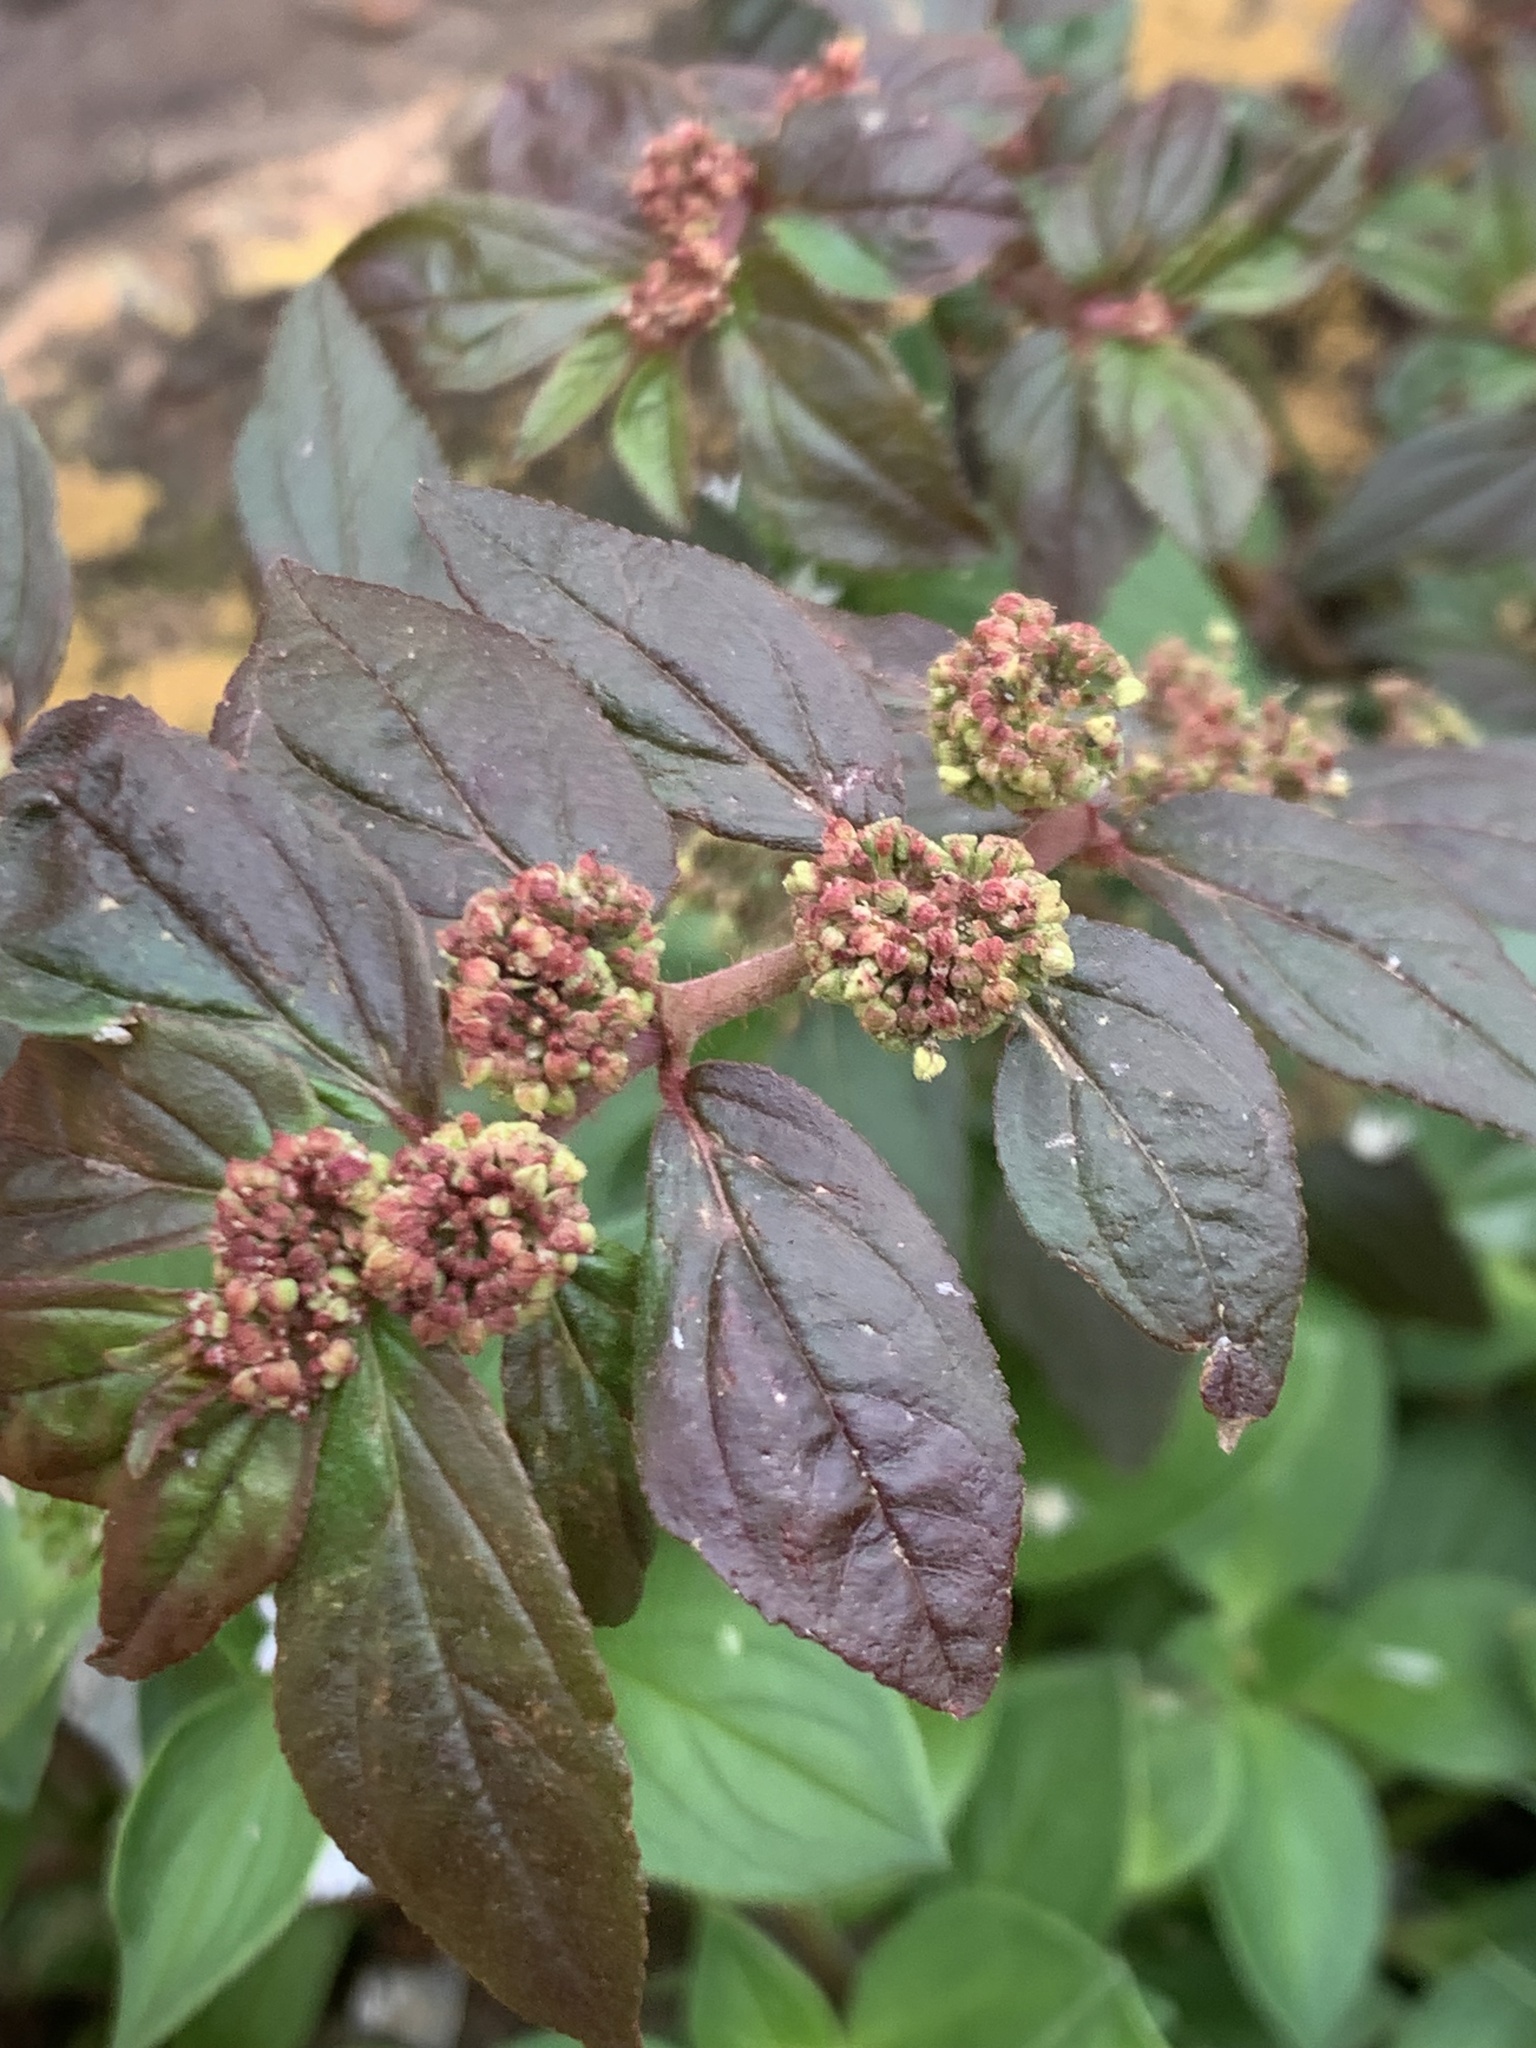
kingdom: Plantae
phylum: Tracheophyta
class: Magnoliopsida
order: Malpighiales
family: Euphorbiaceae
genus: Euphorbia
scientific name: Euphorbia hirta
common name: Pillpod sandmat
